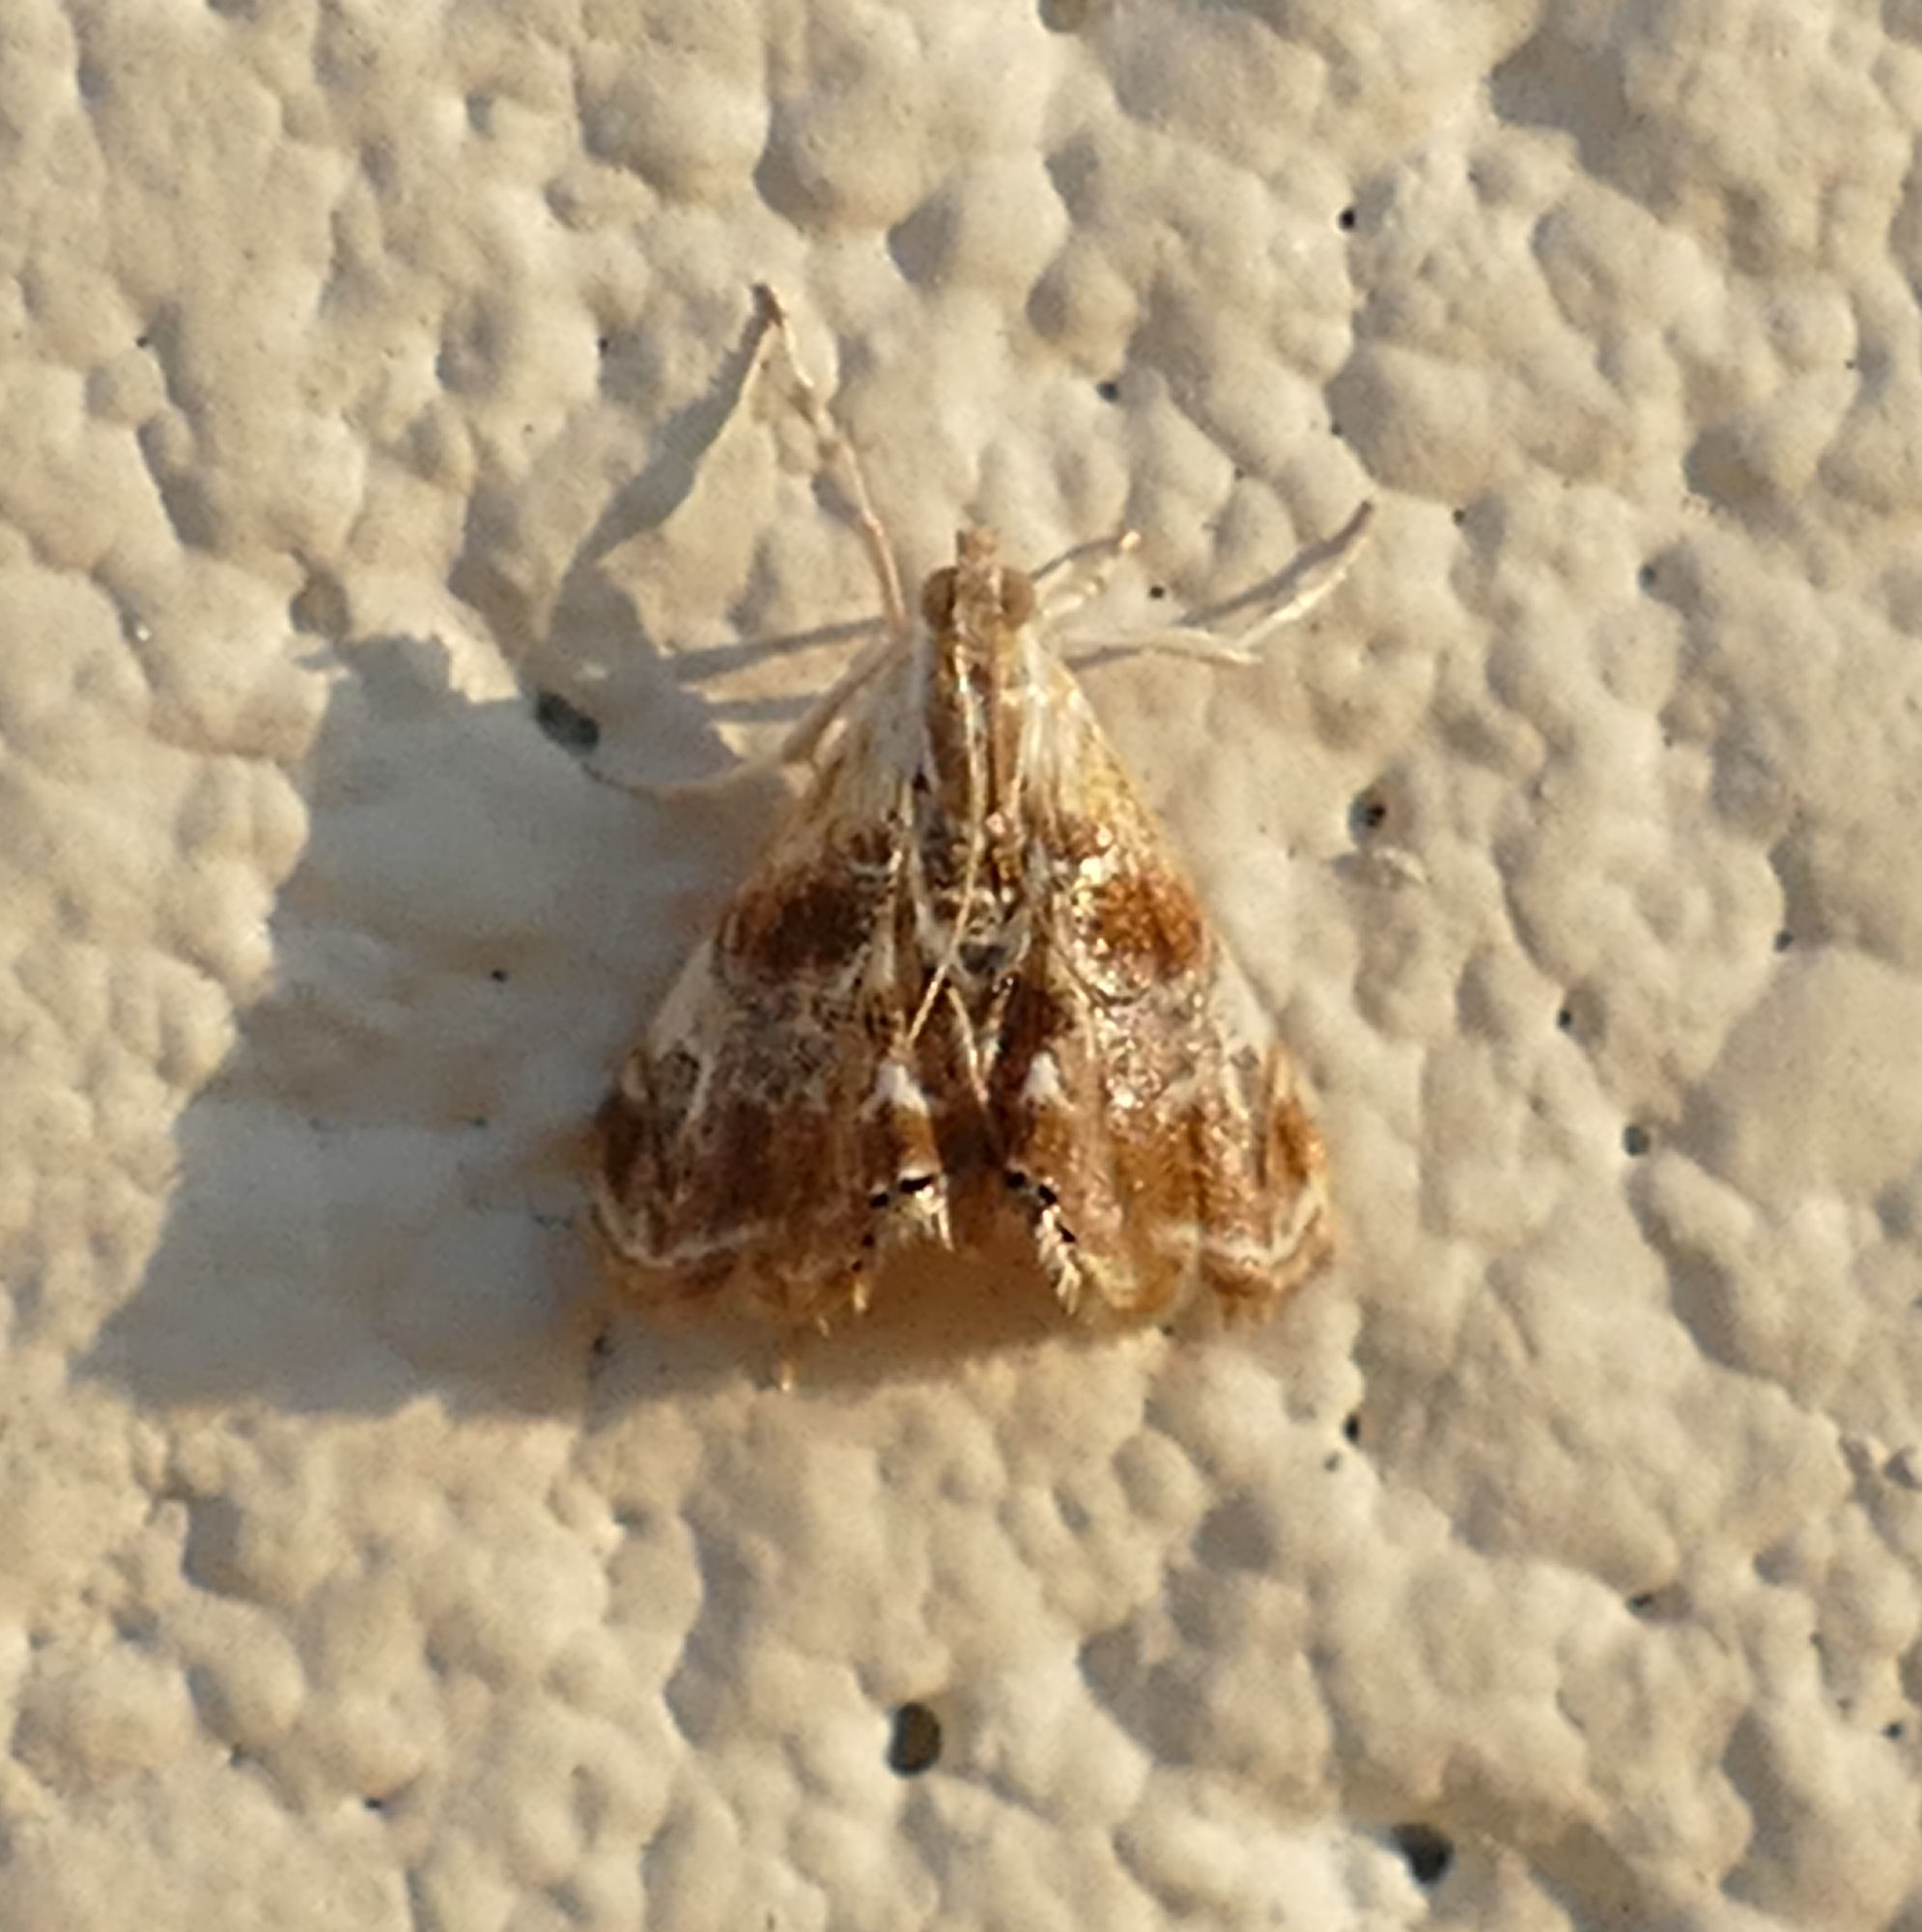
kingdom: Animalia
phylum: Arthropoda
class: Insecta
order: Lepidoptera
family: Crambidae
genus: Dicymolomia
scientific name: Dicymolomia julianalis
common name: Julia's dicymolomia moth
